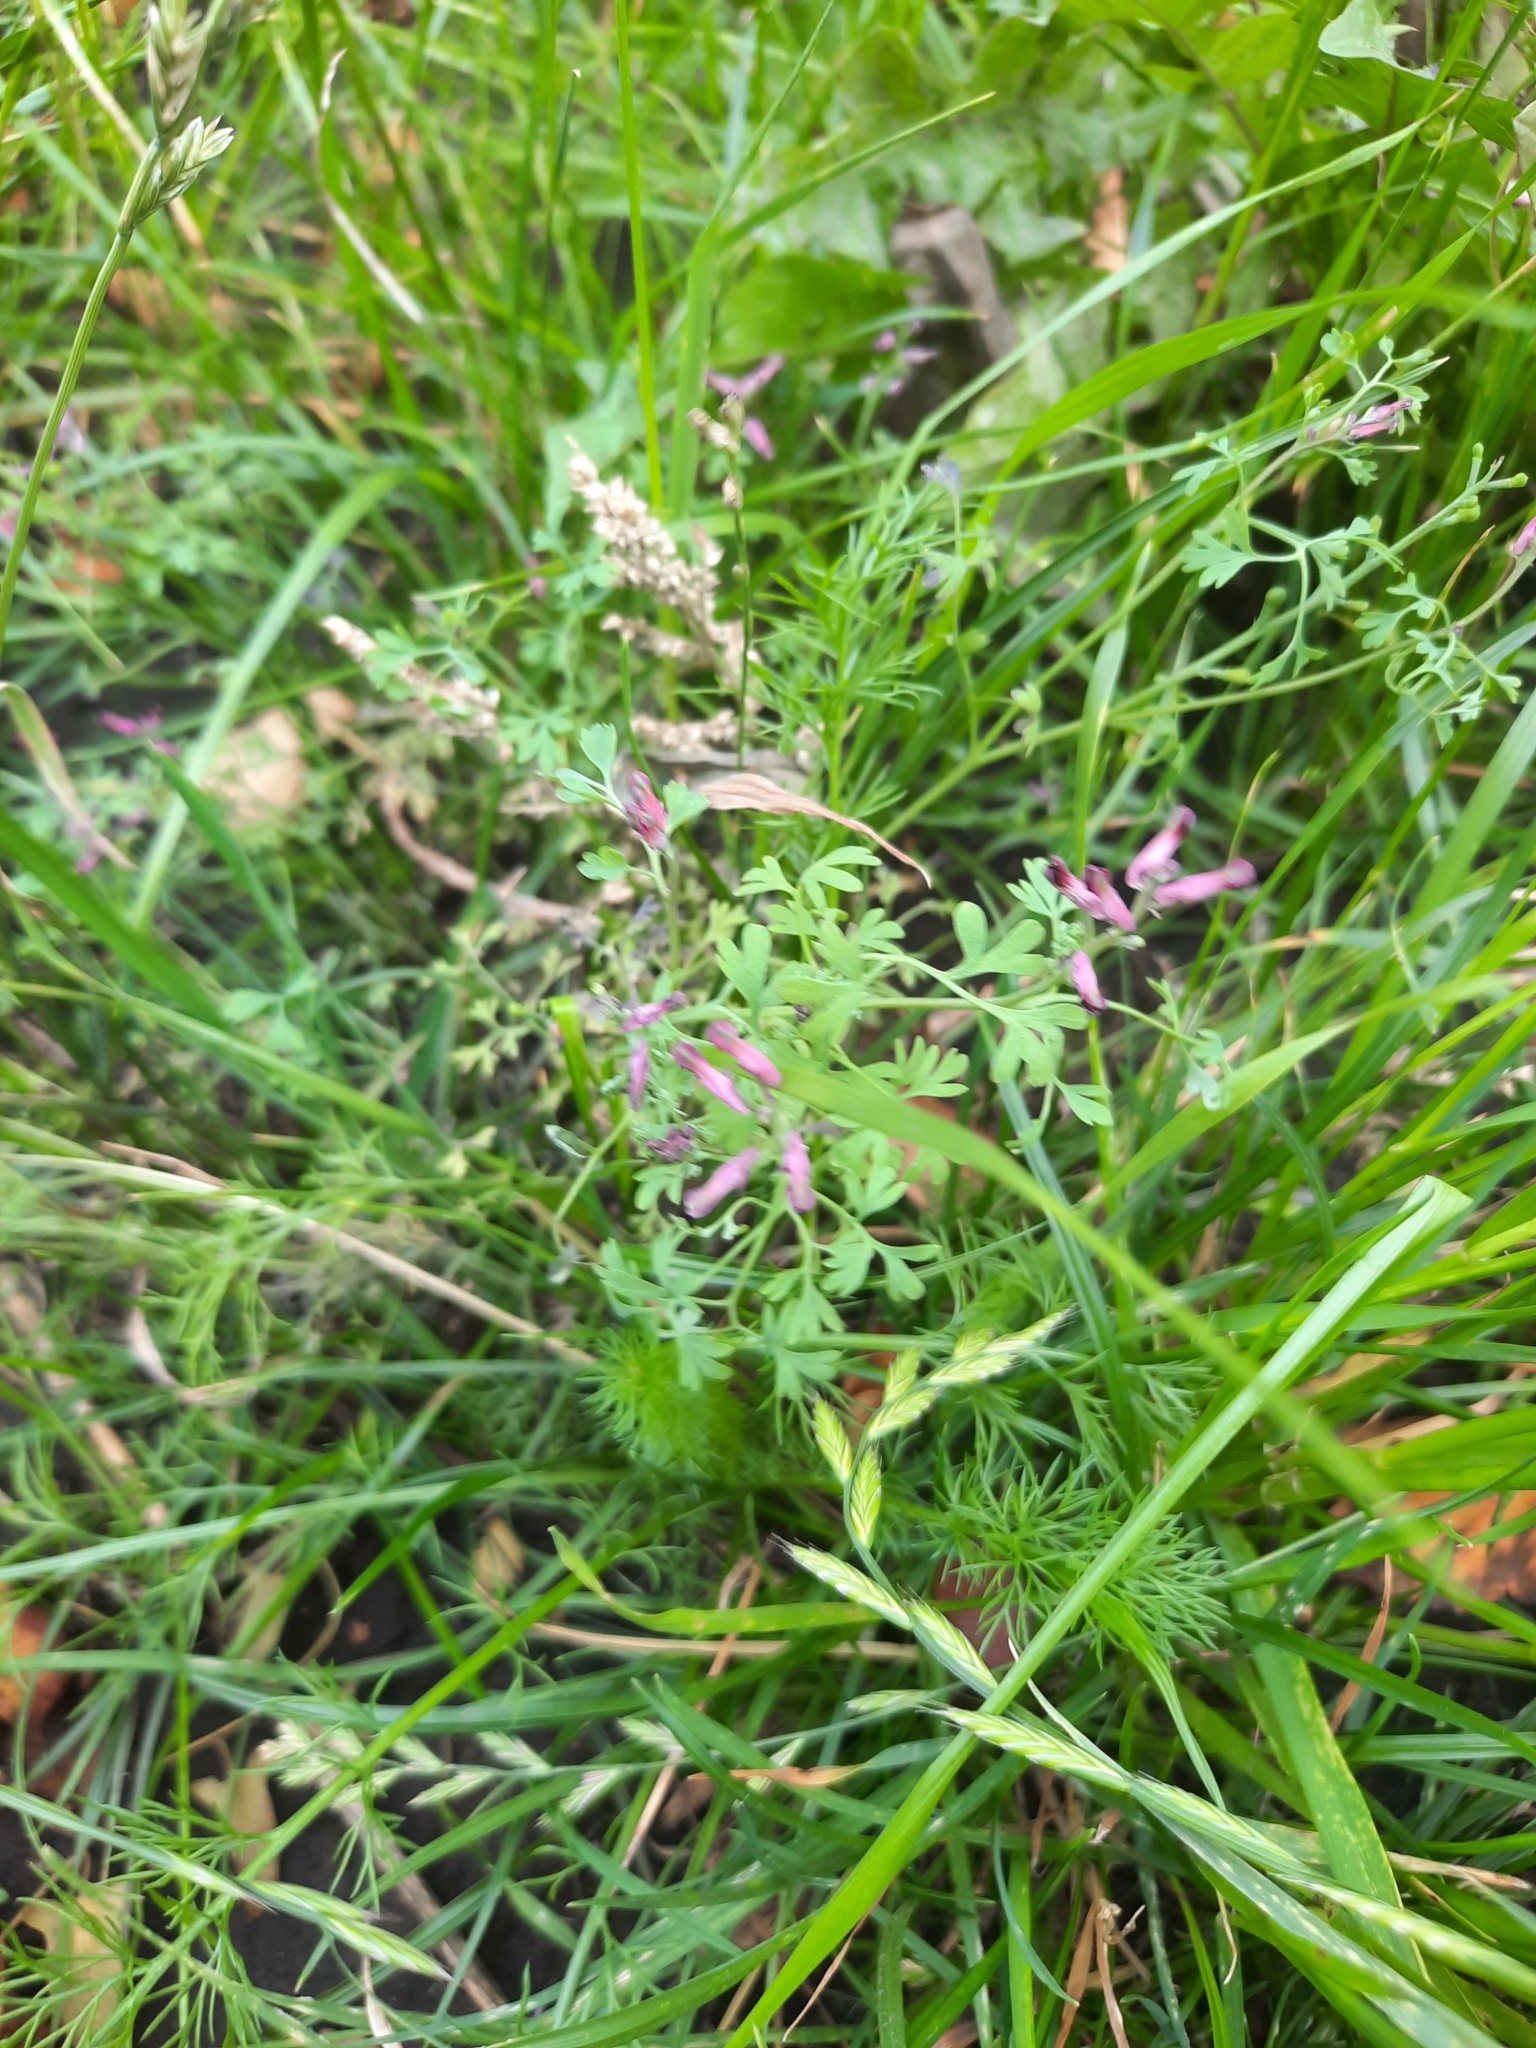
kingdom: Plantae
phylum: Tracheophyta
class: Magnoliopsida
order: Ranunculales
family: Papaveraceae
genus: Fumaria
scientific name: Fumaria officinalis
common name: Common fumitory
